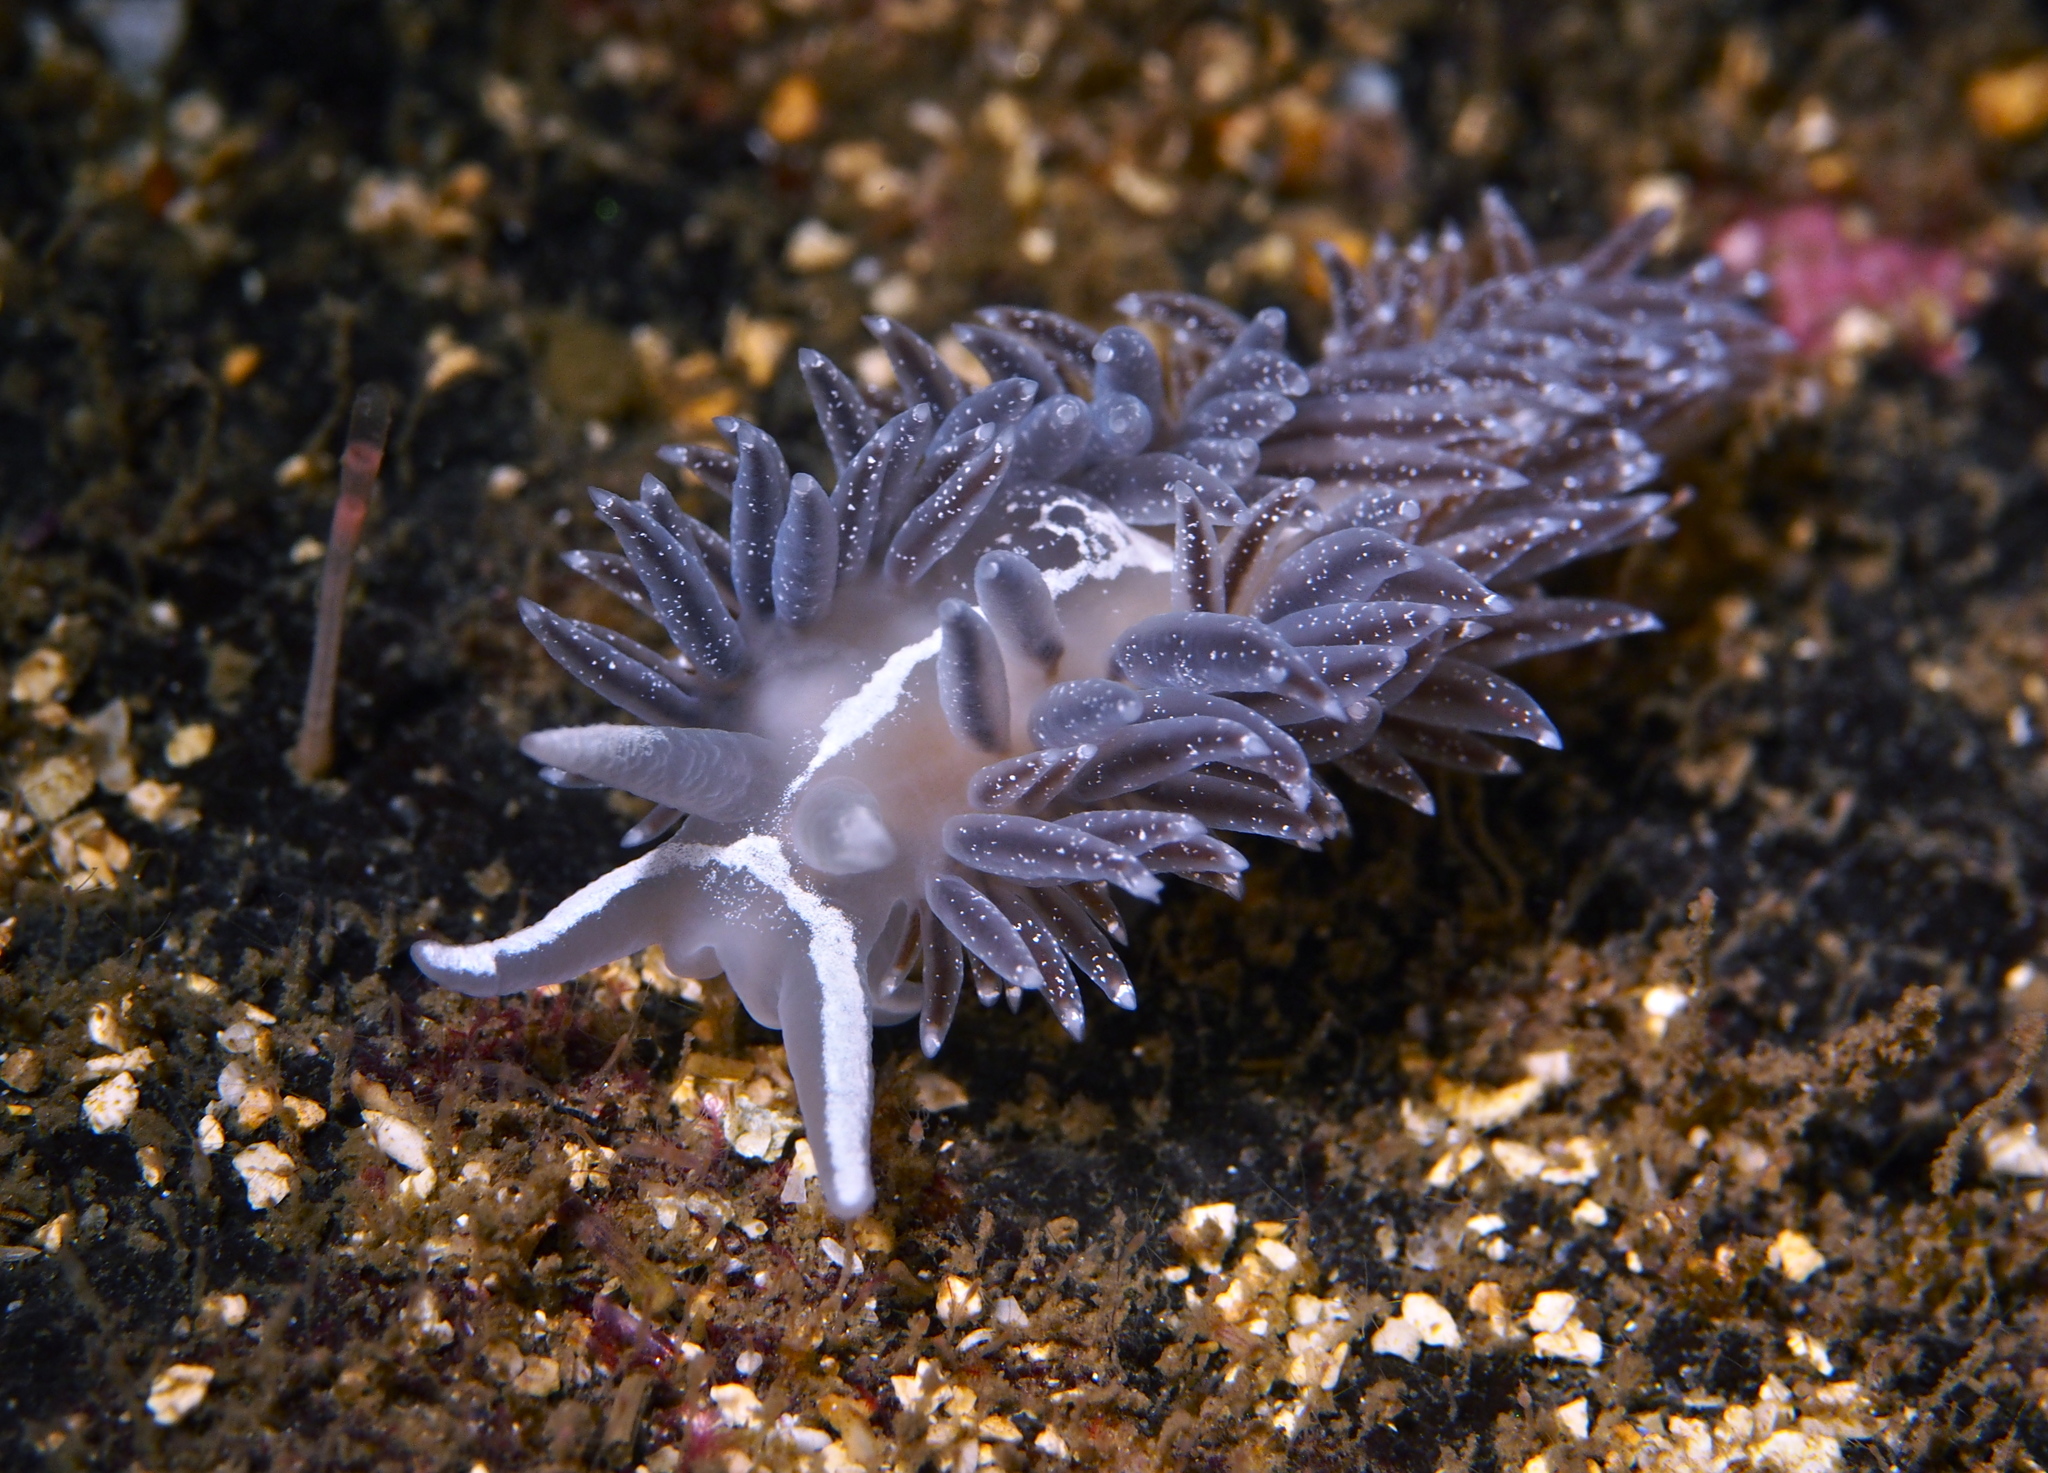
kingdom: Animalia
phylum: Mollusca
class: Gastropoda
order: Nudibranchia
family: Coryphellidae
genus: Coryphella
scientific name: Coryphella orjani
